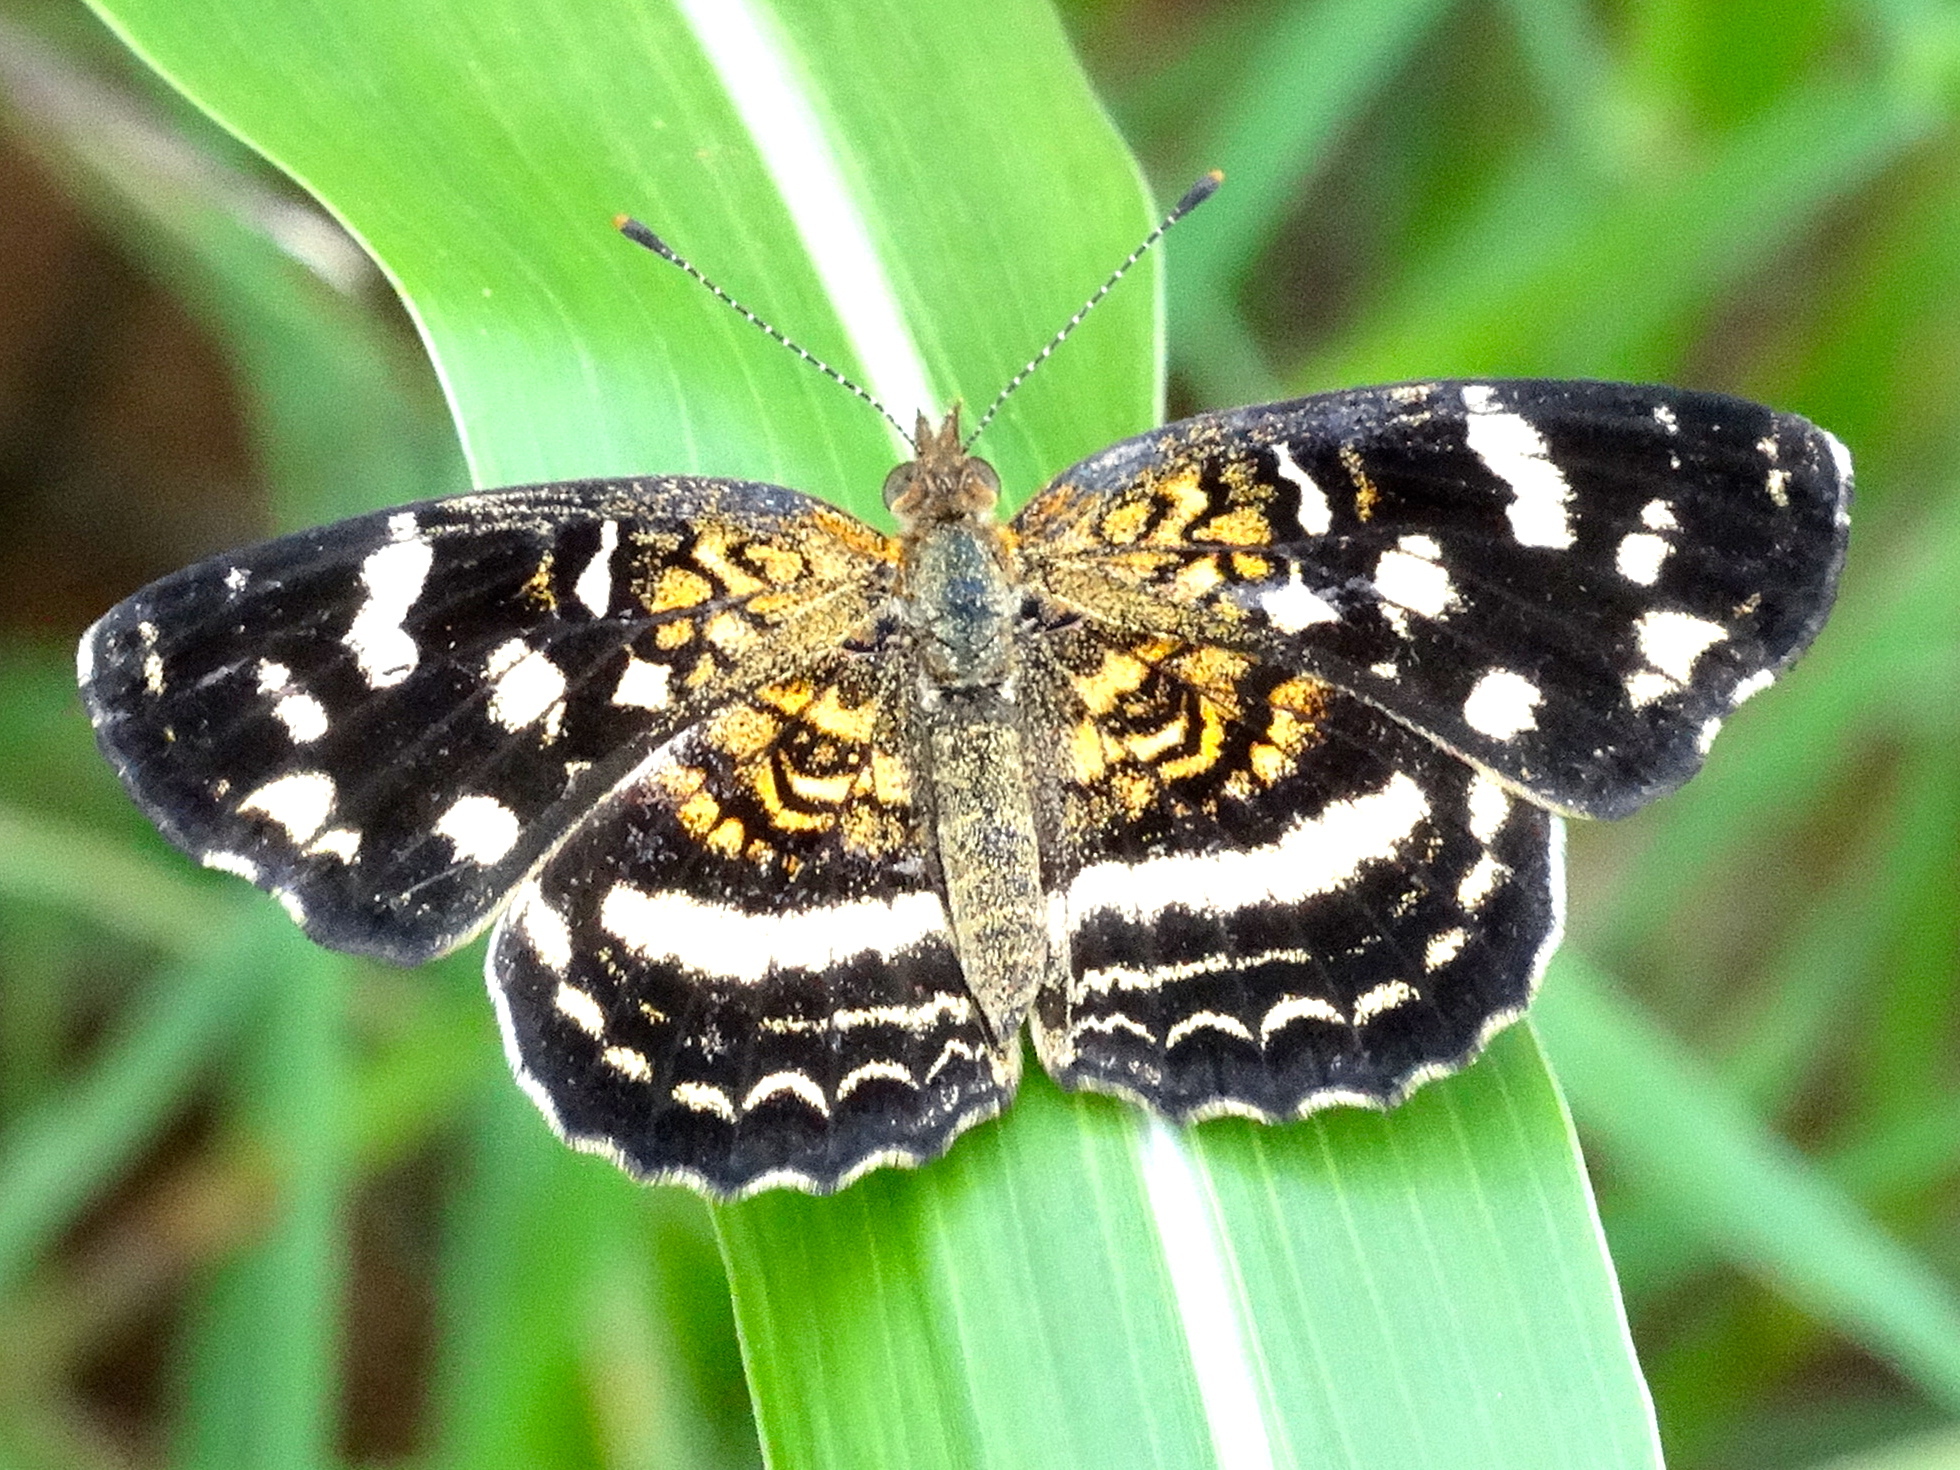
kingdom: Animalia
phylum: Arthropoda
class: Insecta
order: Lepidoptera
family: Nymphalidae
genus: Anthanassa
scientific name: Anthanassa tulcis
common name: Pale-banded crescent
